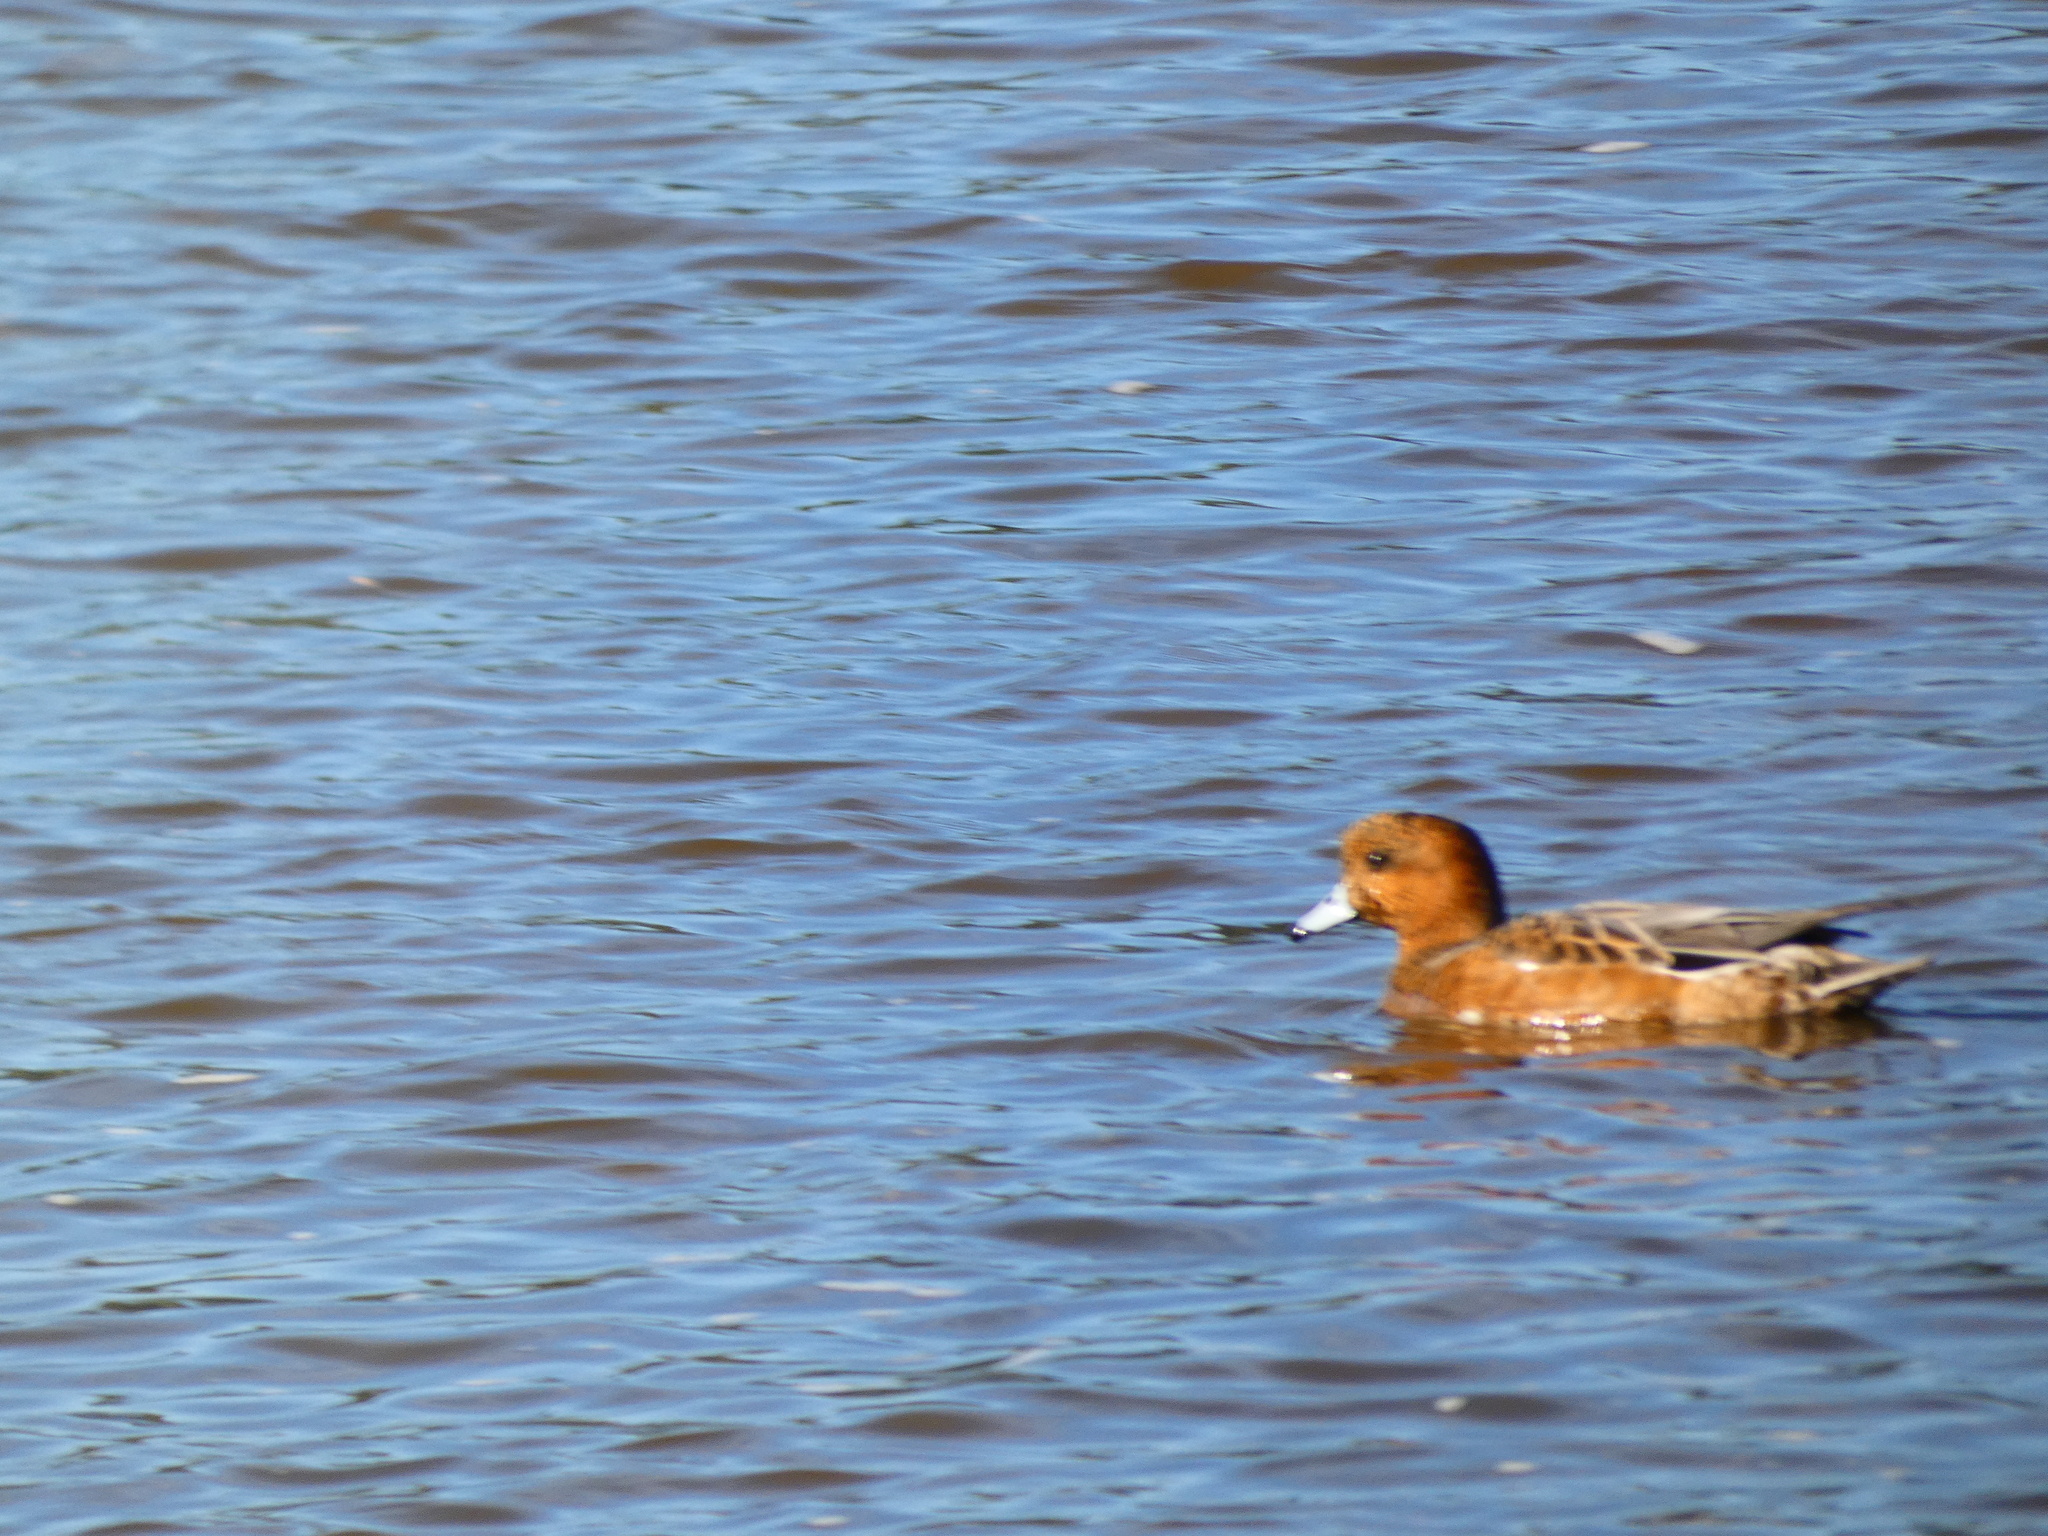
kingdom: Animalia
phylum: Chordata
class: Aves
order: Anseriformes
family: Anatidae
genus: Mareca
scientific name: Mareca penelope
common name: Eurasian wigeon
